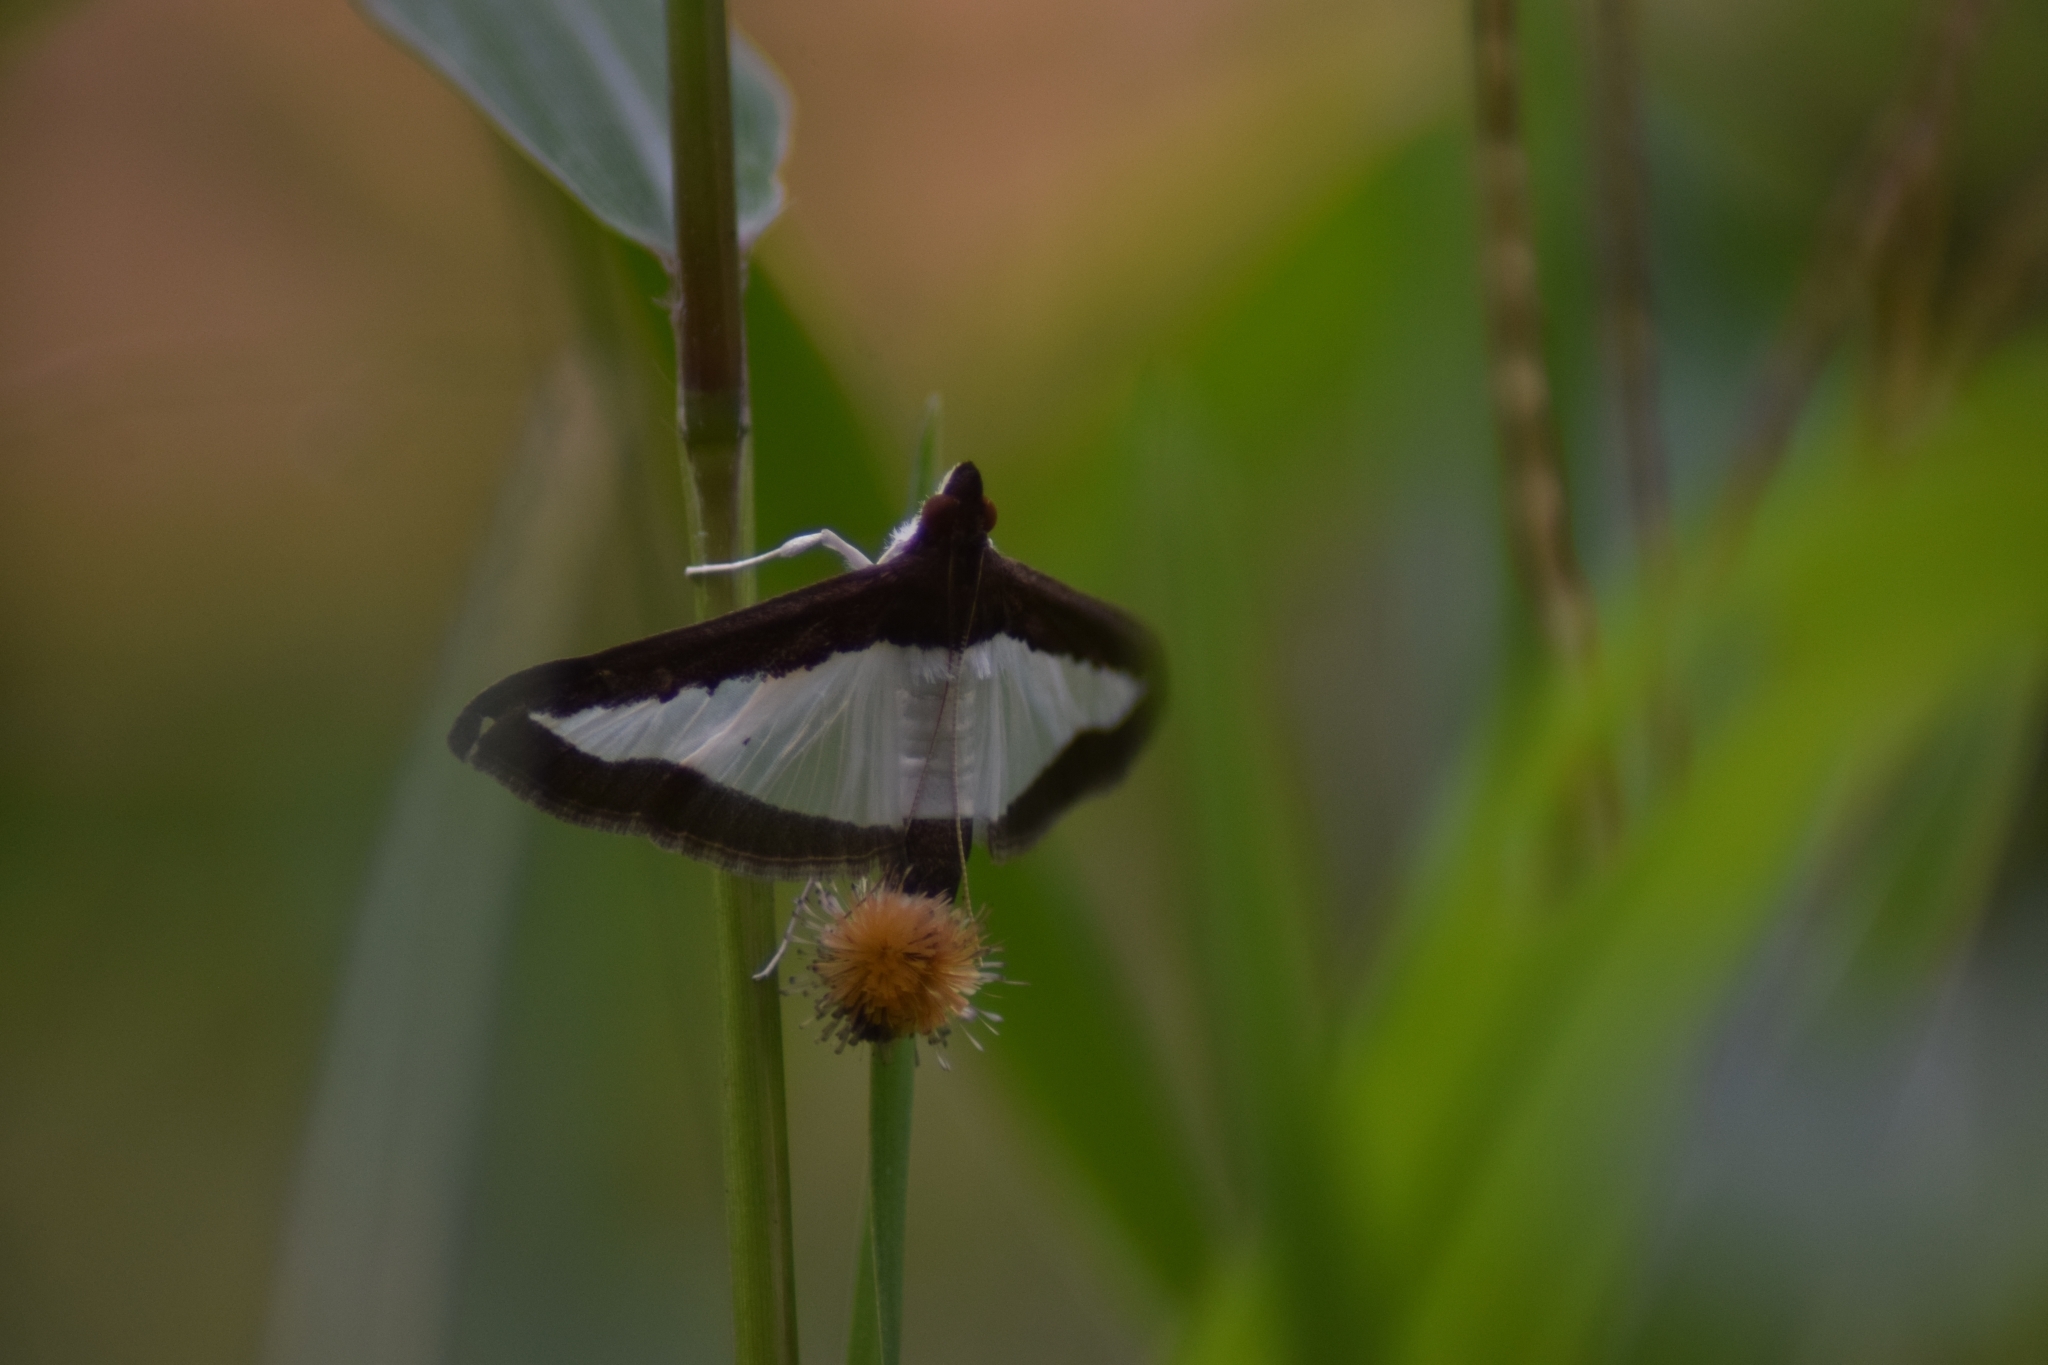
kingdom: Animalia
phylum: Arthropoda
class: Insecta
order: Lepidoptera
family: Crambidae
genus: Diaphania
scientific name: Diaphania indica
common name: Cucumber moth
